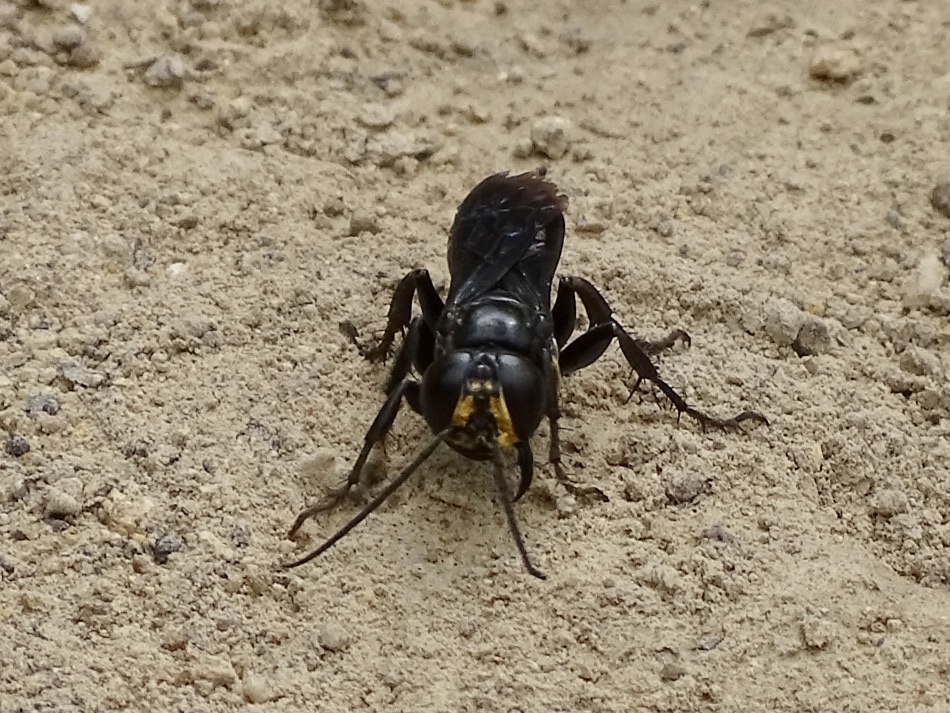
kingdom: Animalia
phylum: Arthropoda
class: Insecta
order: Hymenoptera
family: Crabronidae
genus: Liris
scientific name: Liris anthracinus
